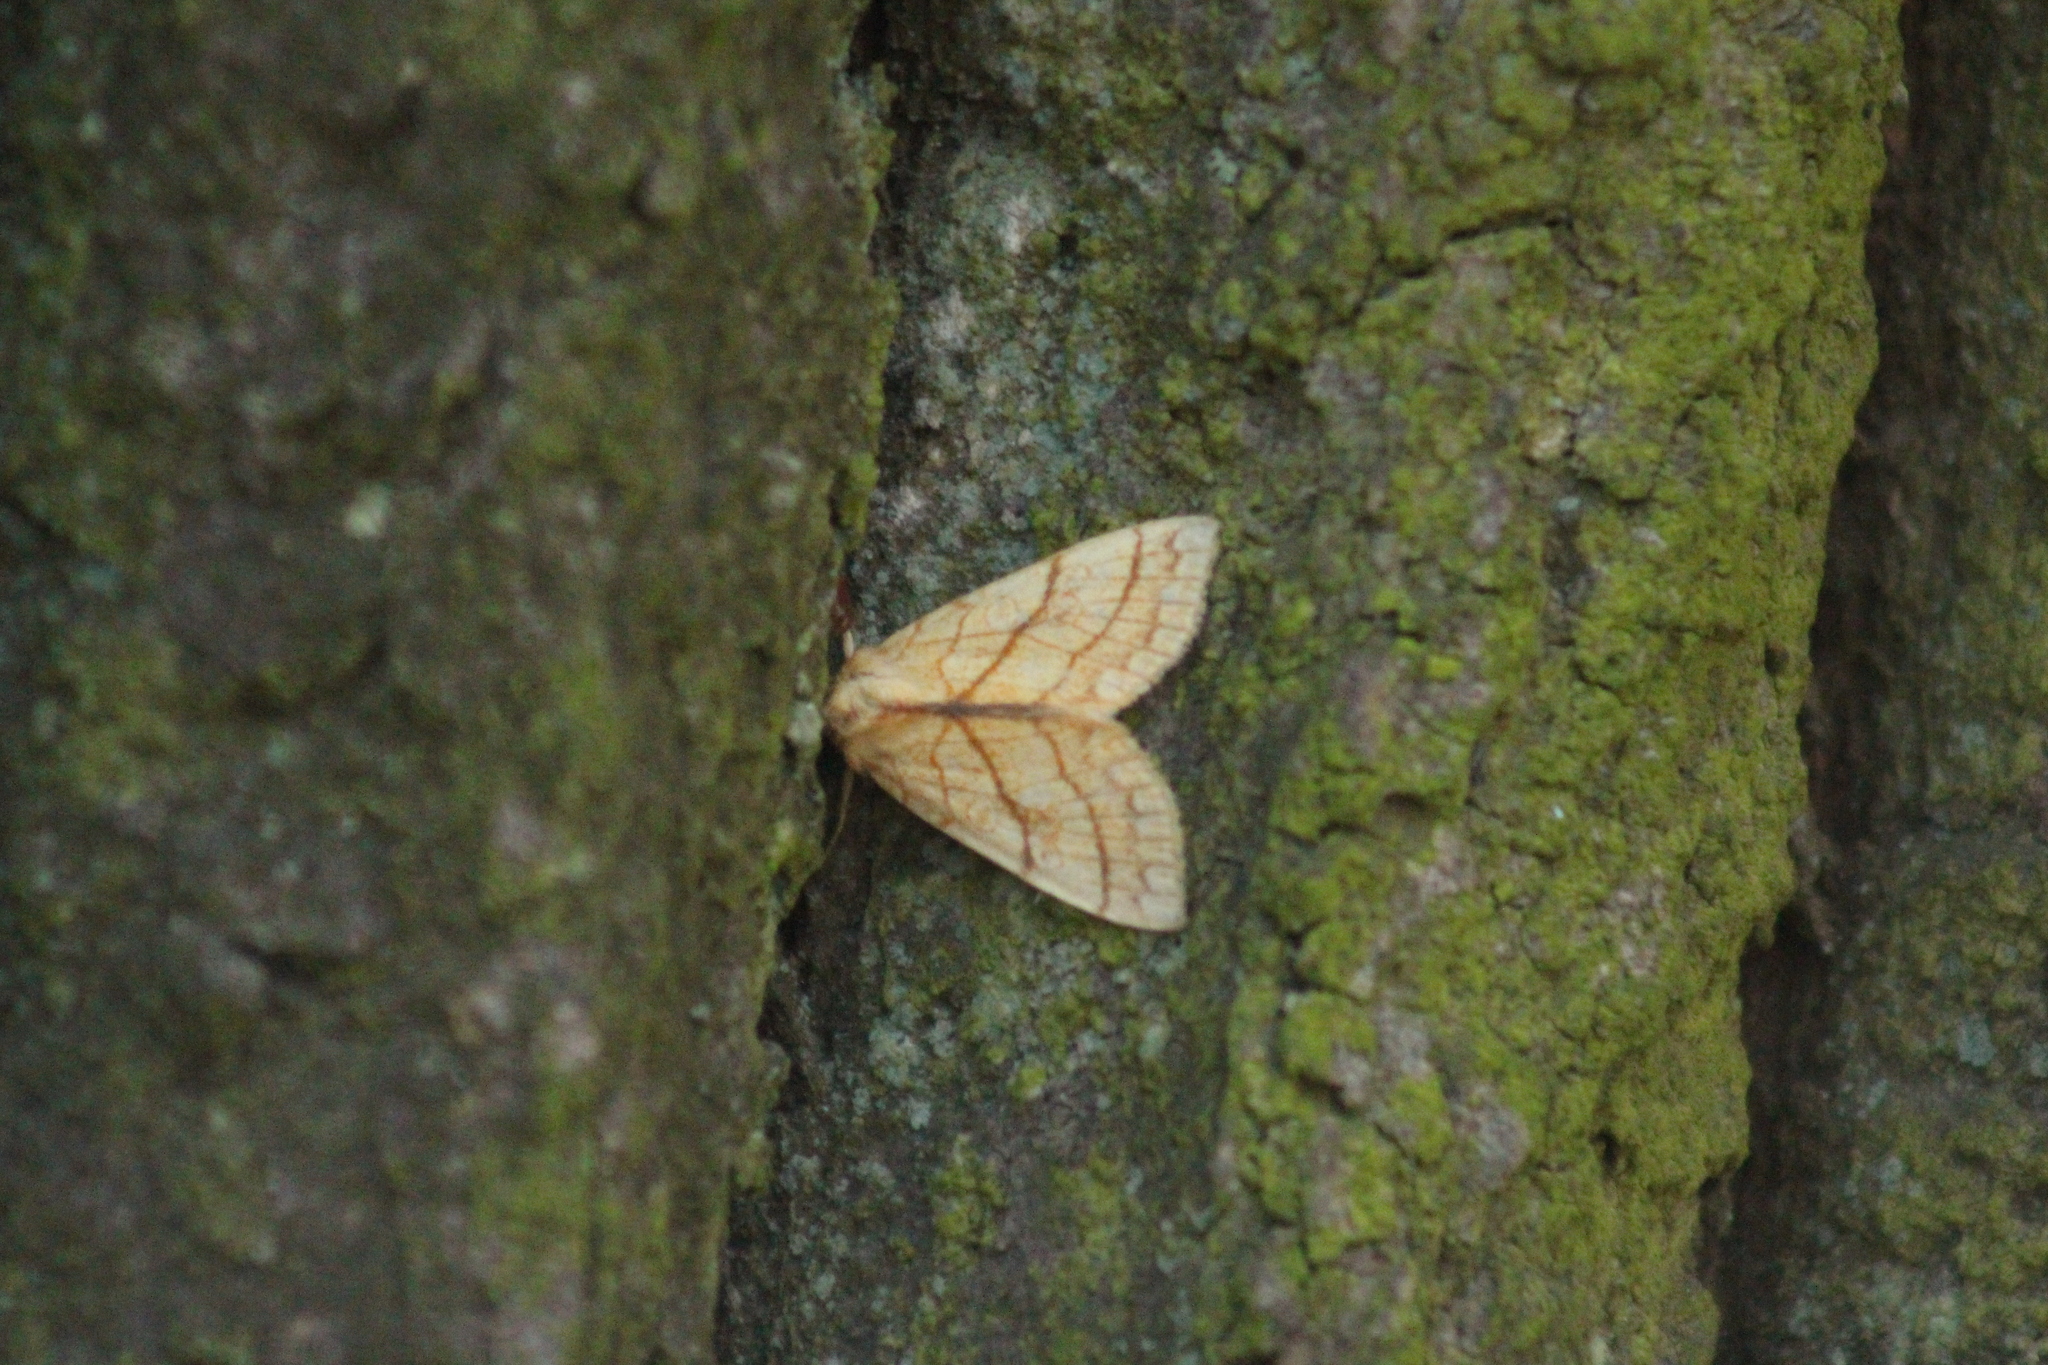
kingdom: Animalia
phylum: Arthropoda
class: Insecta
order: Lepidoptera
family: Noctuidae
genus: Tiliacea
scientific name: Tiliacea citrago
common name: Orange sallow
